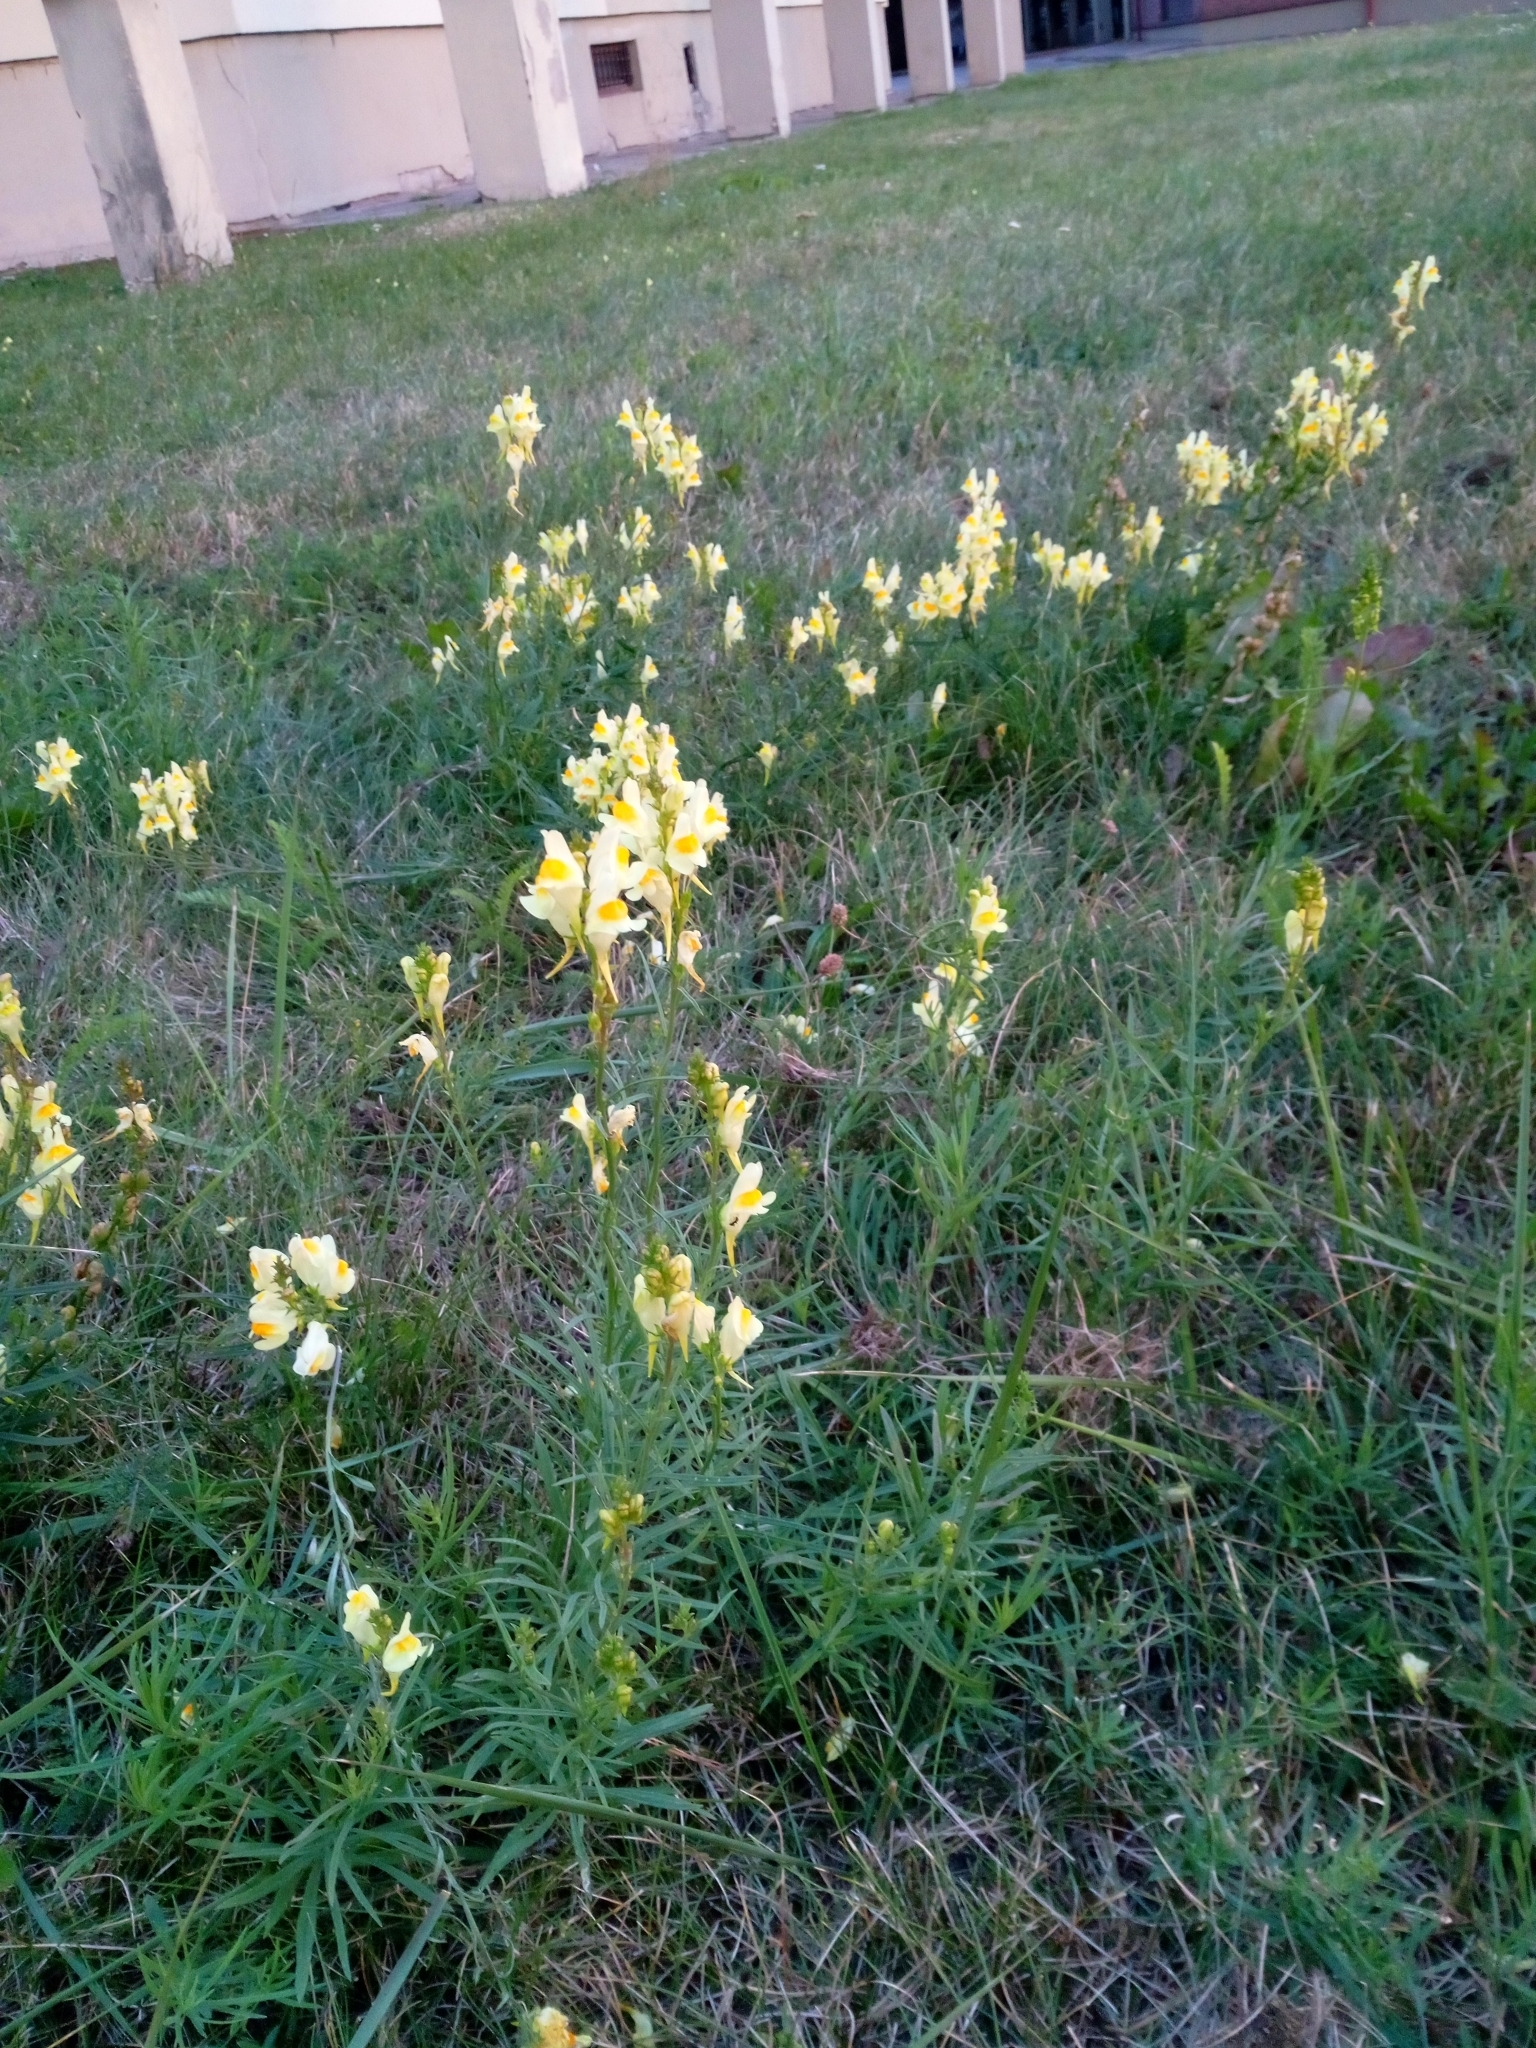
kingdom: Plantae
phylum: Tracheophyta
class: Magnoliopsida
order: Lamiales
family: Plantaginaceae
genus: Linaria
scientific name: Linaria vulgaris
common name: Butter and eggs
